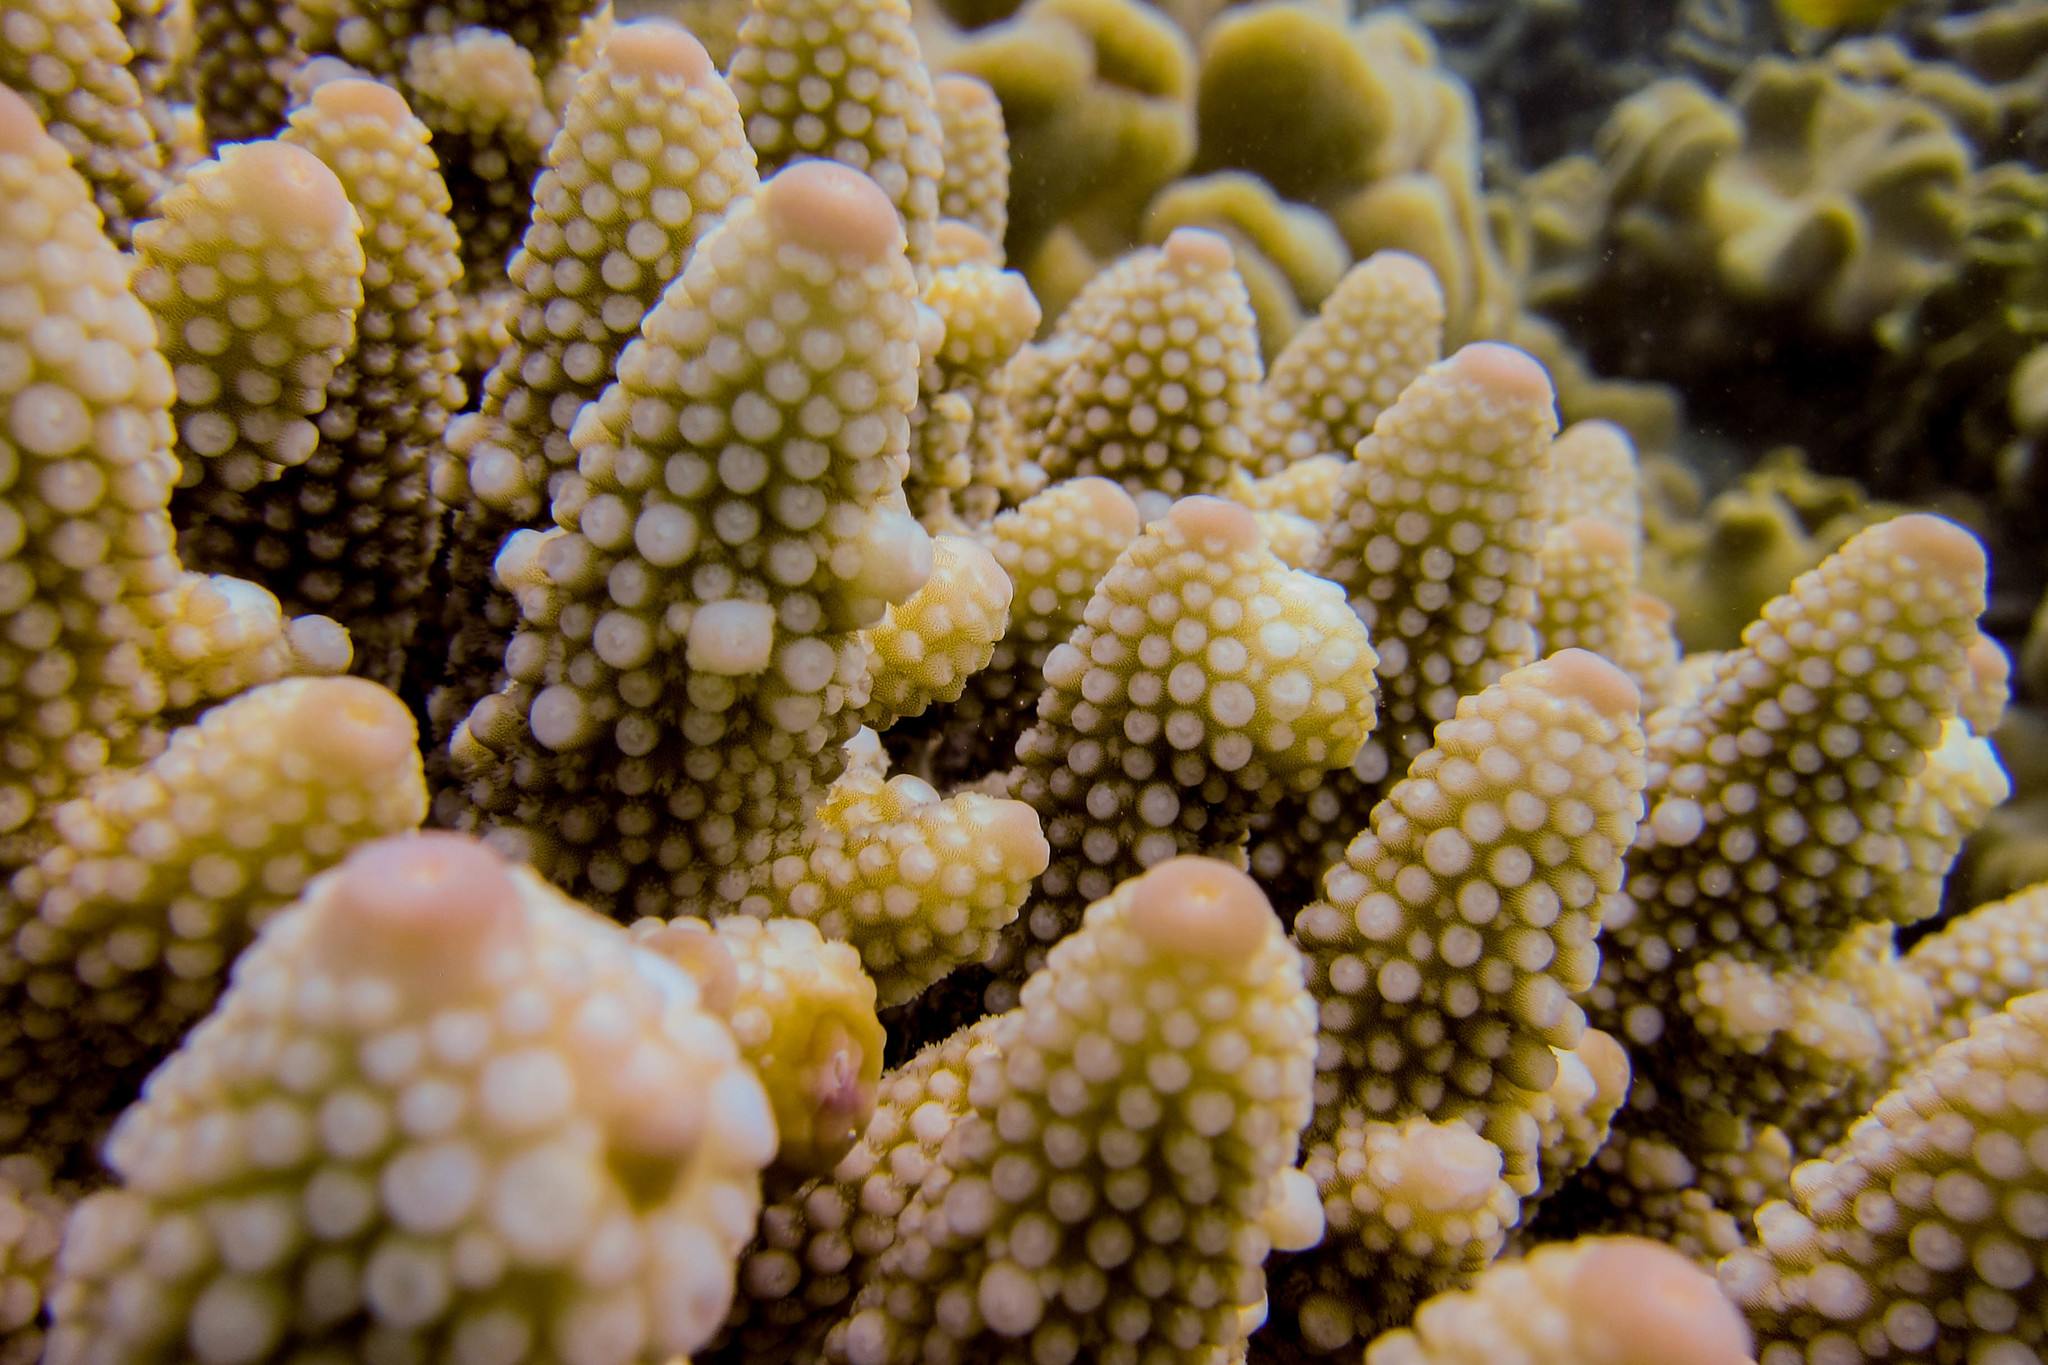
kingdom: Animalia
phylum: Cnidaria
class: Anthozoa
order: Scleractinia
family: Acroporidae
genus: Acropora
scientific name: Acropora gemmifera
